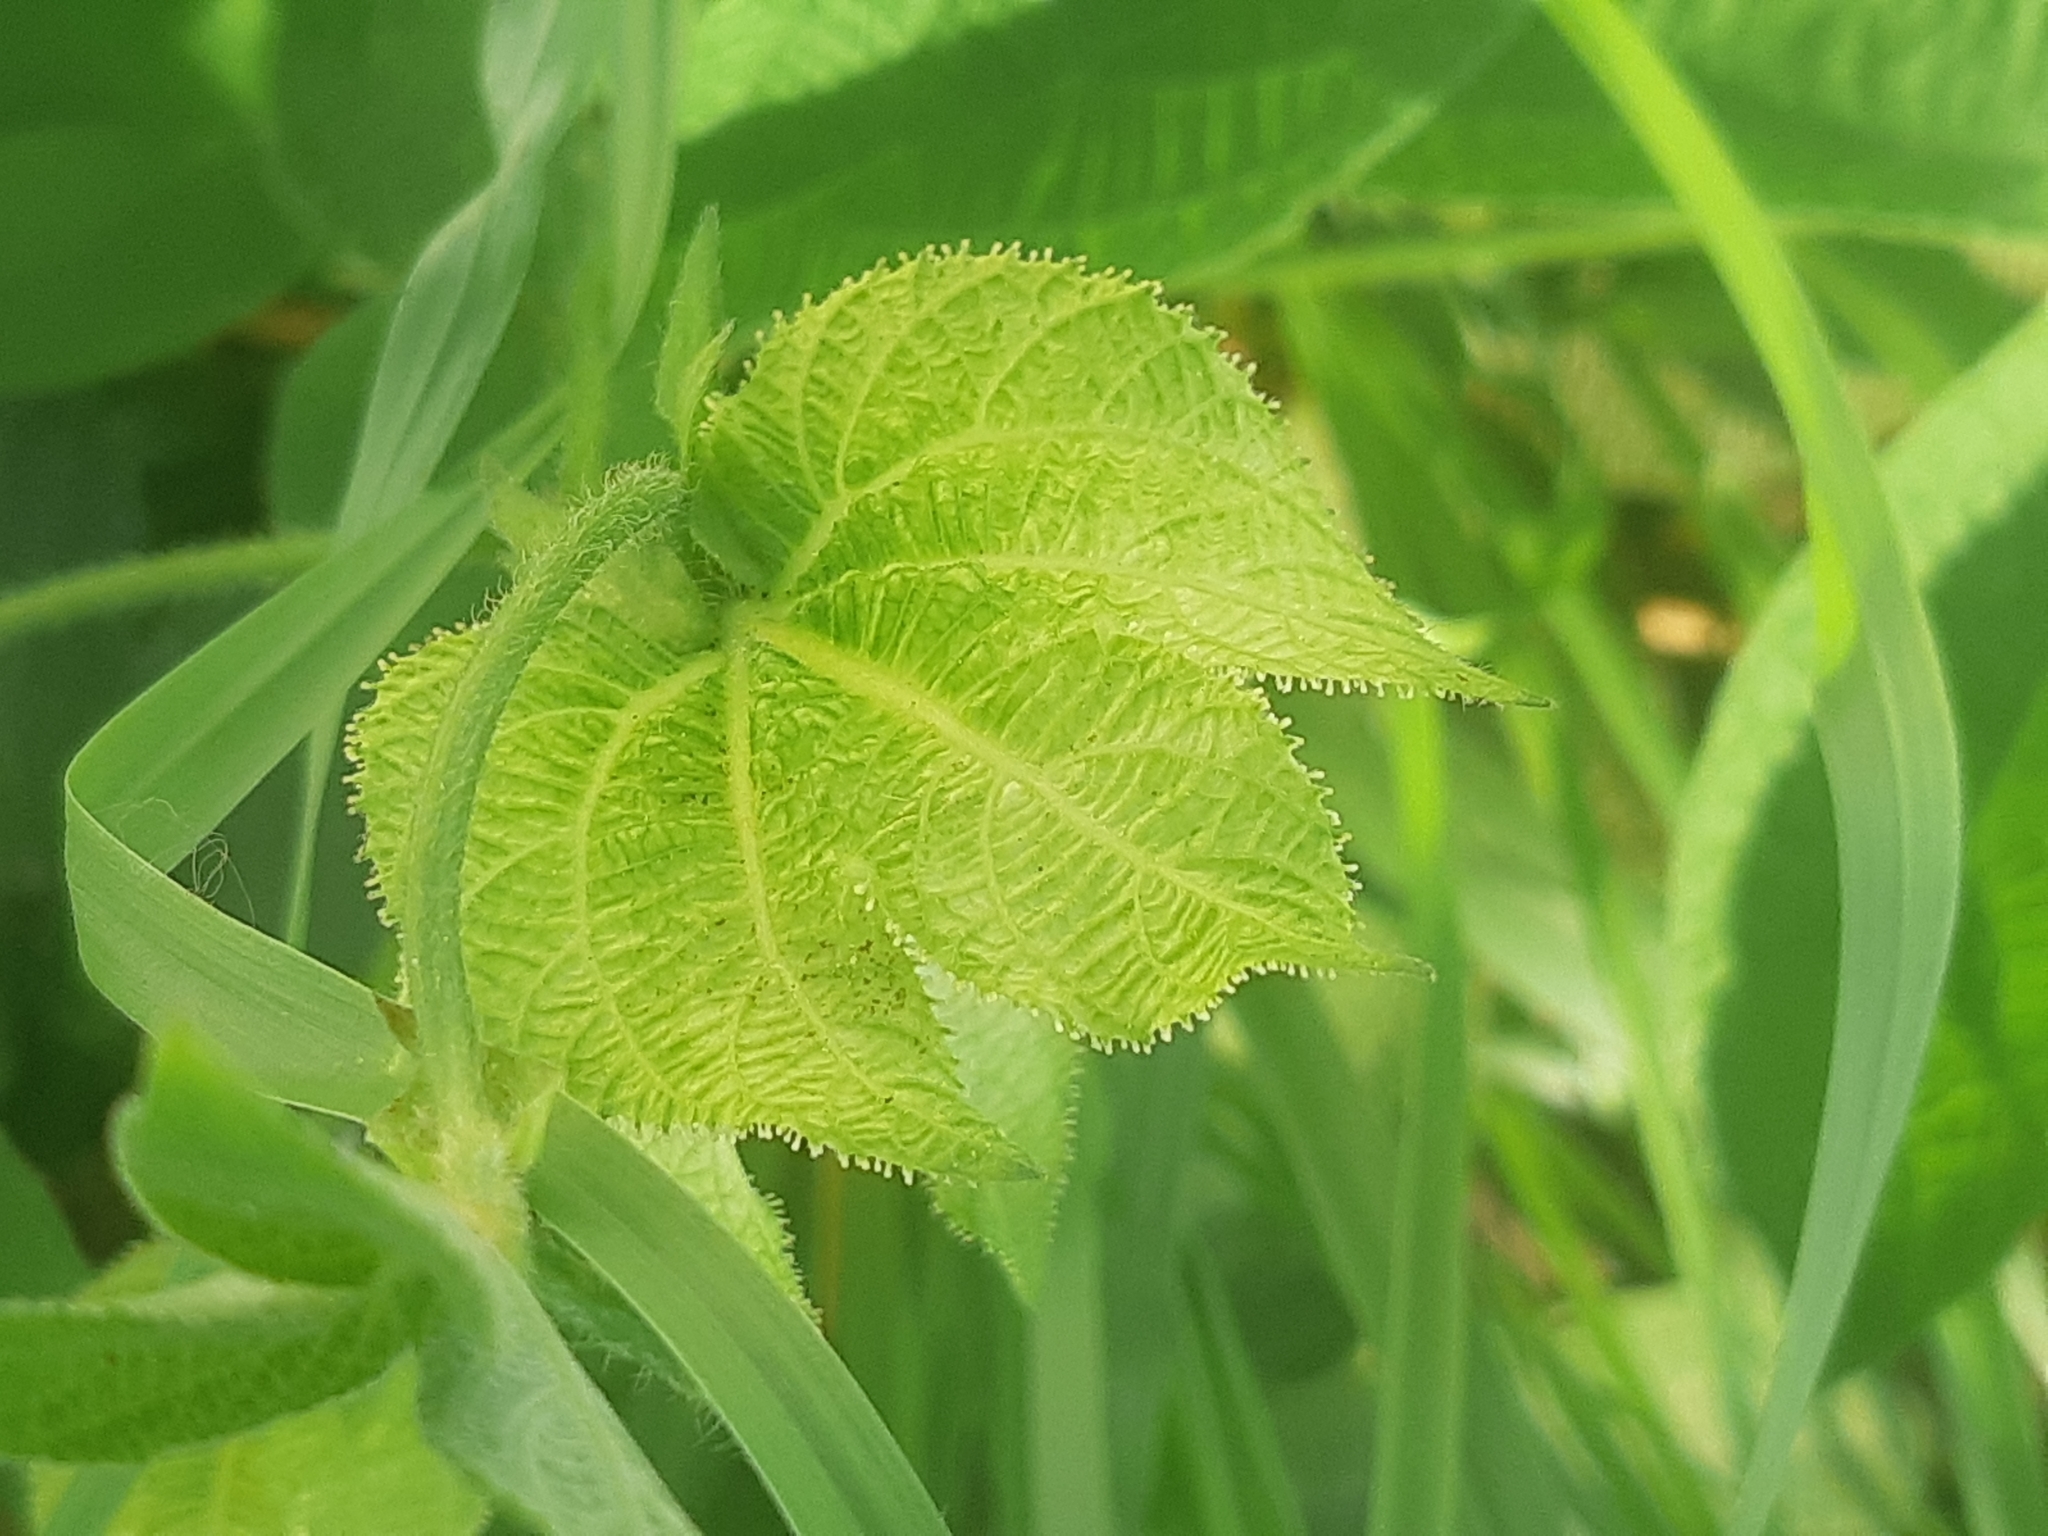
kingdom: Plantae
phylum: Tracheophyta
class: Magnoliopsida
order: Malpighiales
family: Euphorbiaceae
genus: Dalechampia
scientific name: Dalechampia scandens
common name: Spurgecreeper
